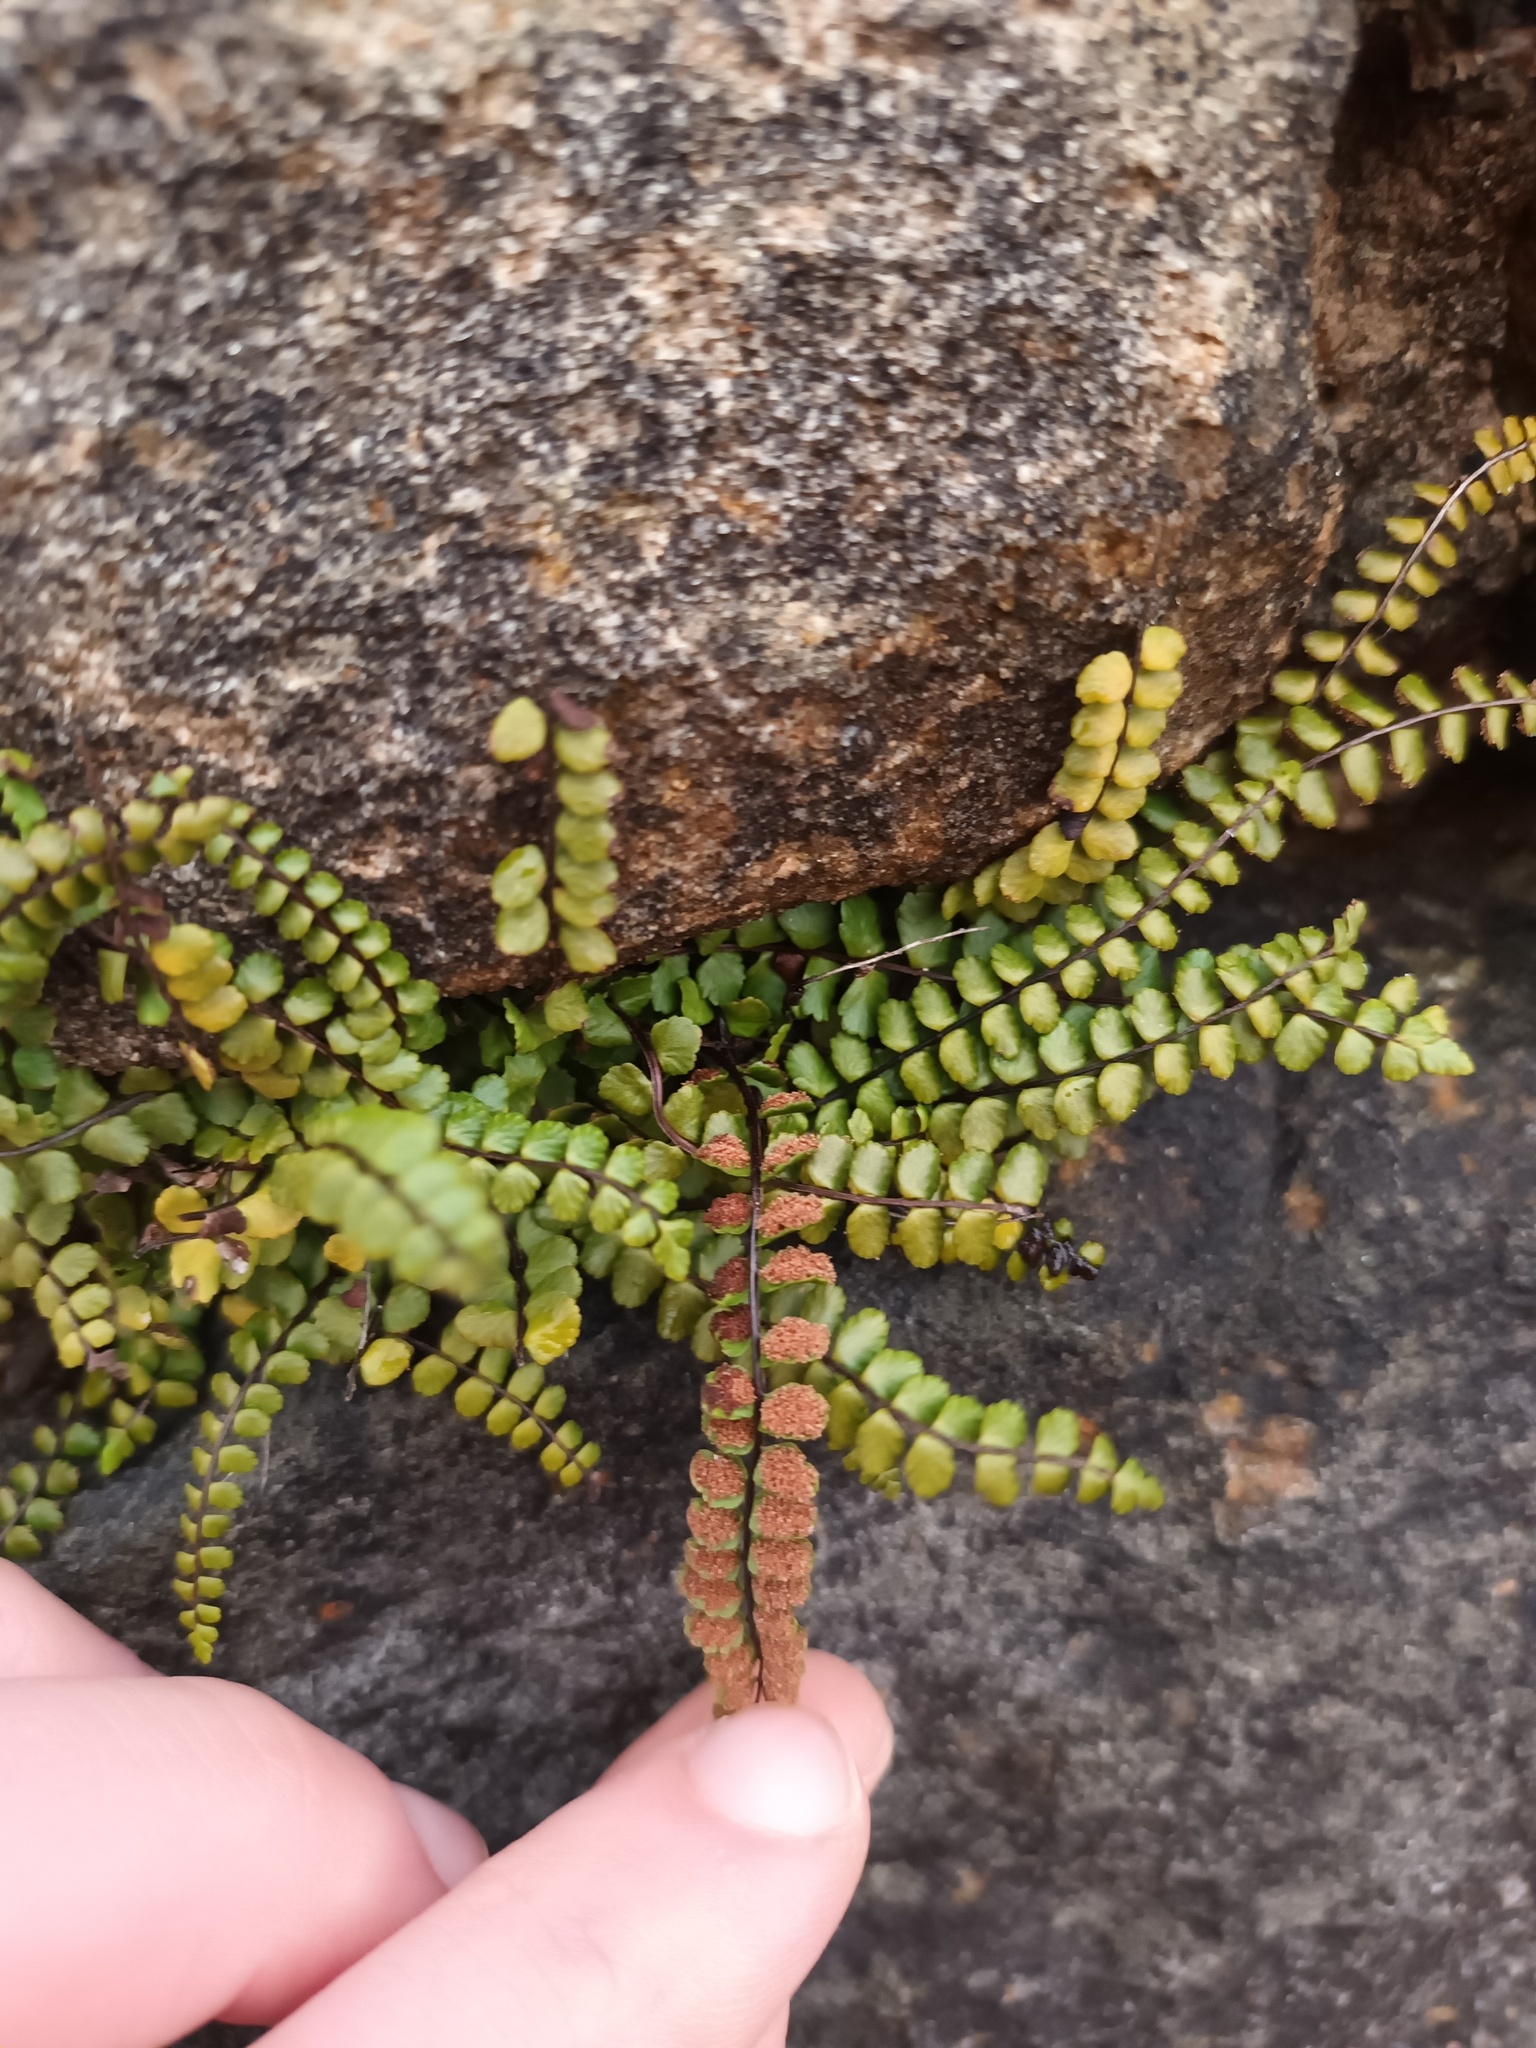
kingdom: Plantae
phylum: Tracheophyta
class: Polypodiopsida
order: Polypodiales
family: Aspleniaceae
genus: Asplenium
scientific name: Asplenium trichomanes
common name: Maidenhair spleenwort
